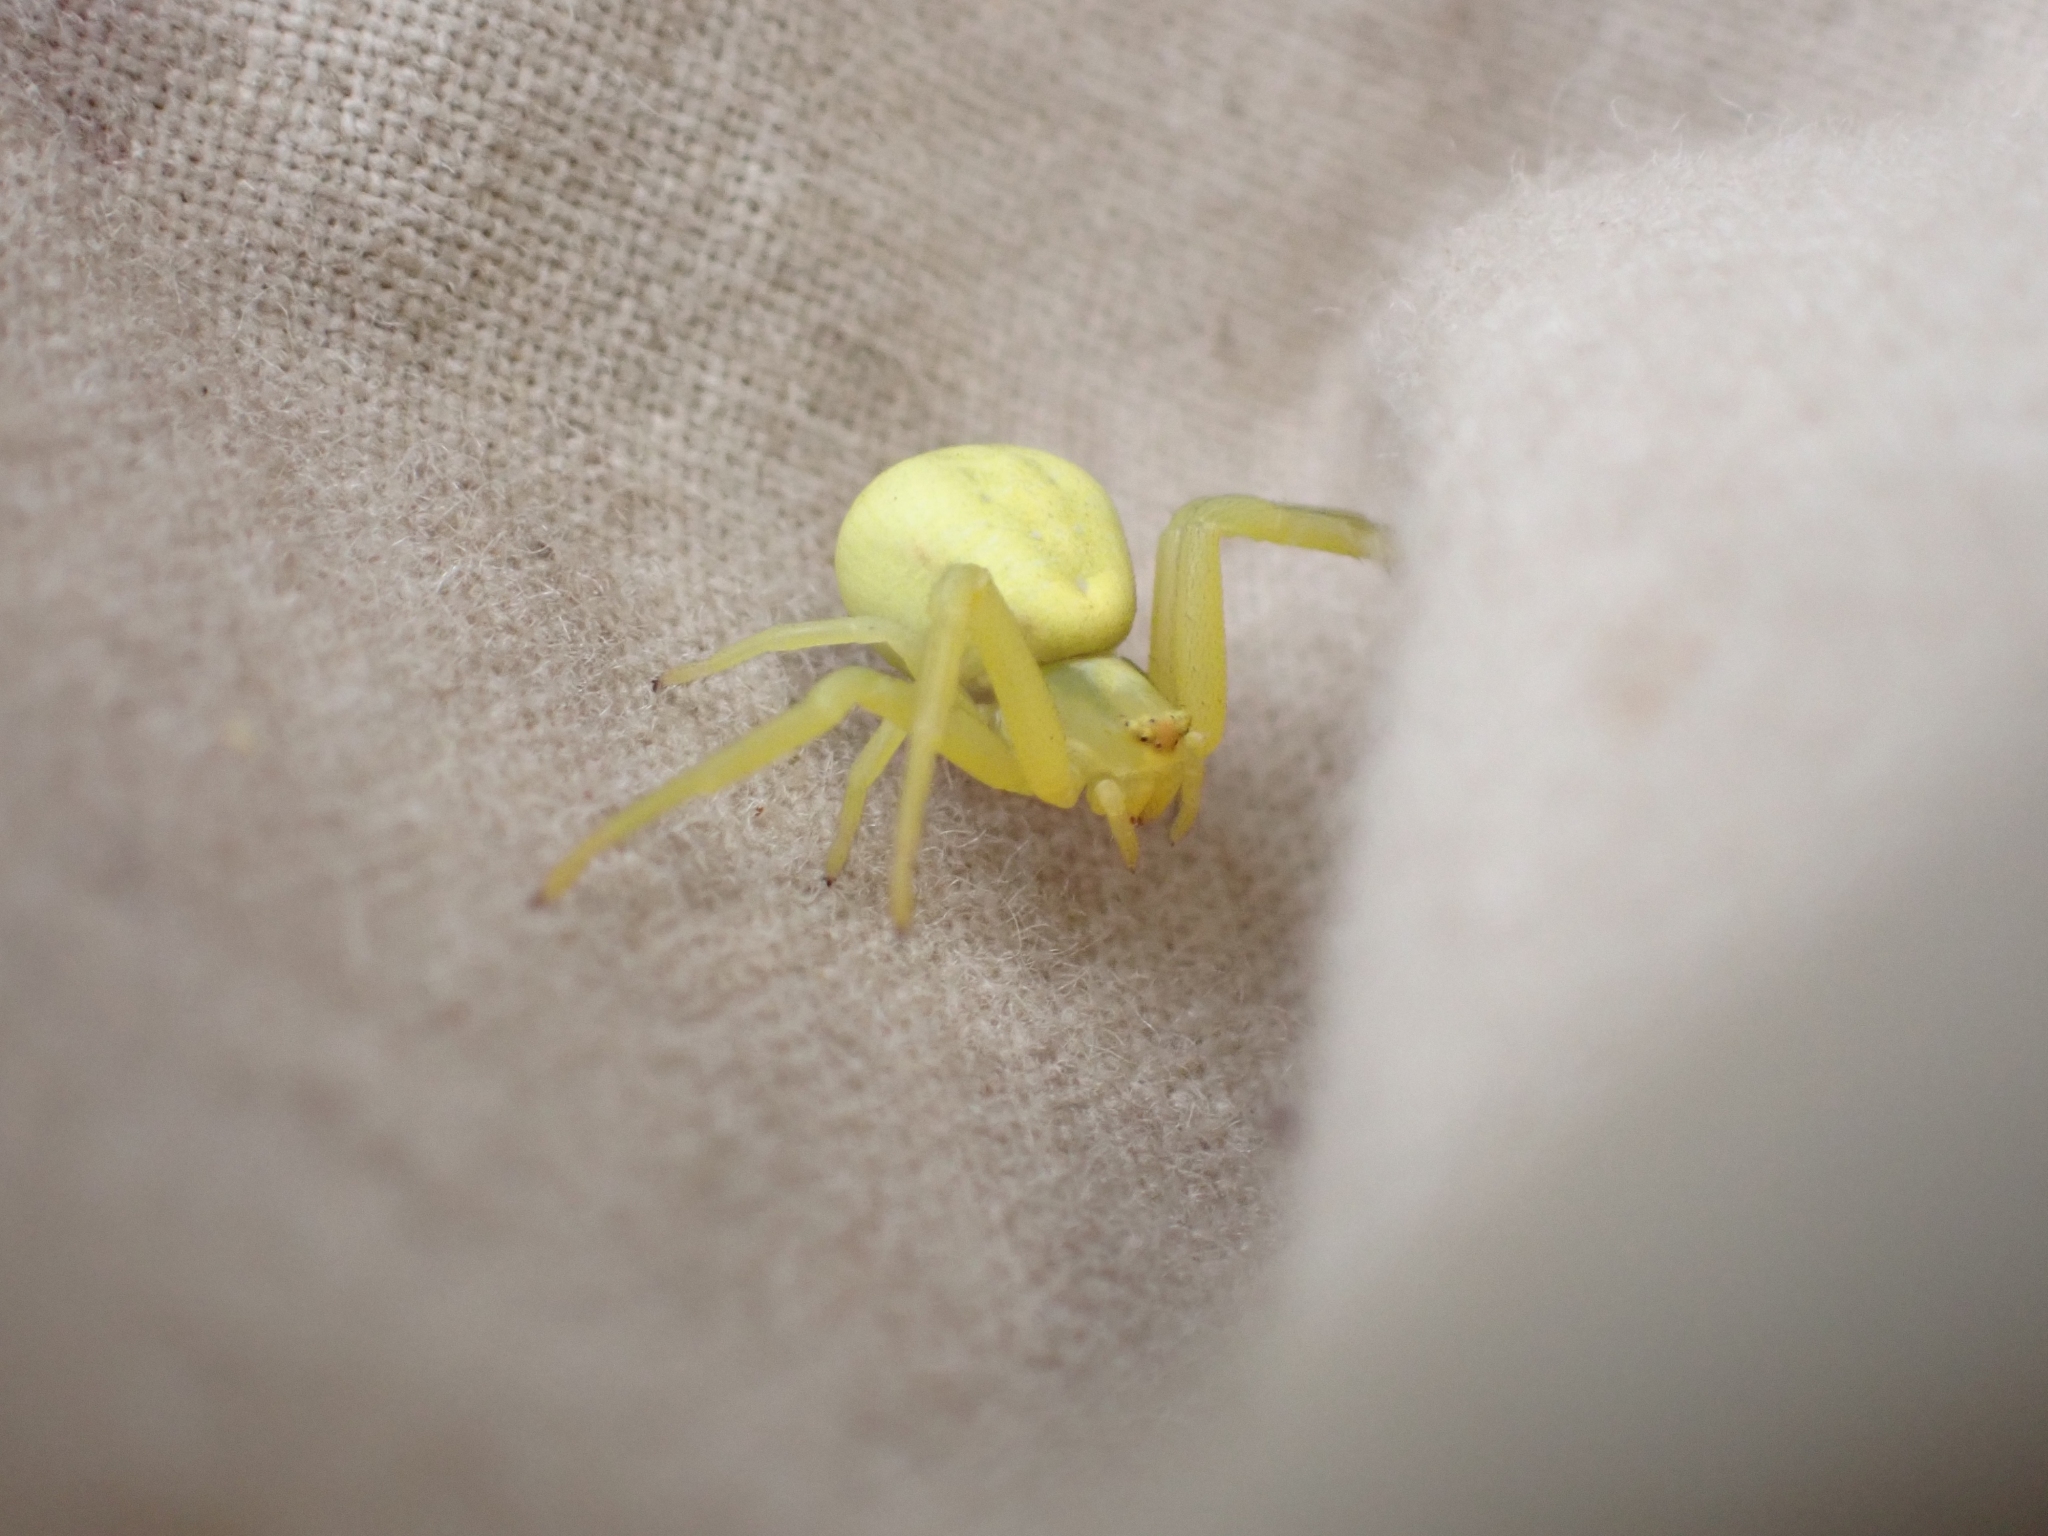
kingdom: Animalia
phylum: Arthropoda
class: Arachnida
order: Araneae
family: Thomisidae
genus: Misumena
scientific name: Misumena vatia
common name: Goldenrod crab spider
